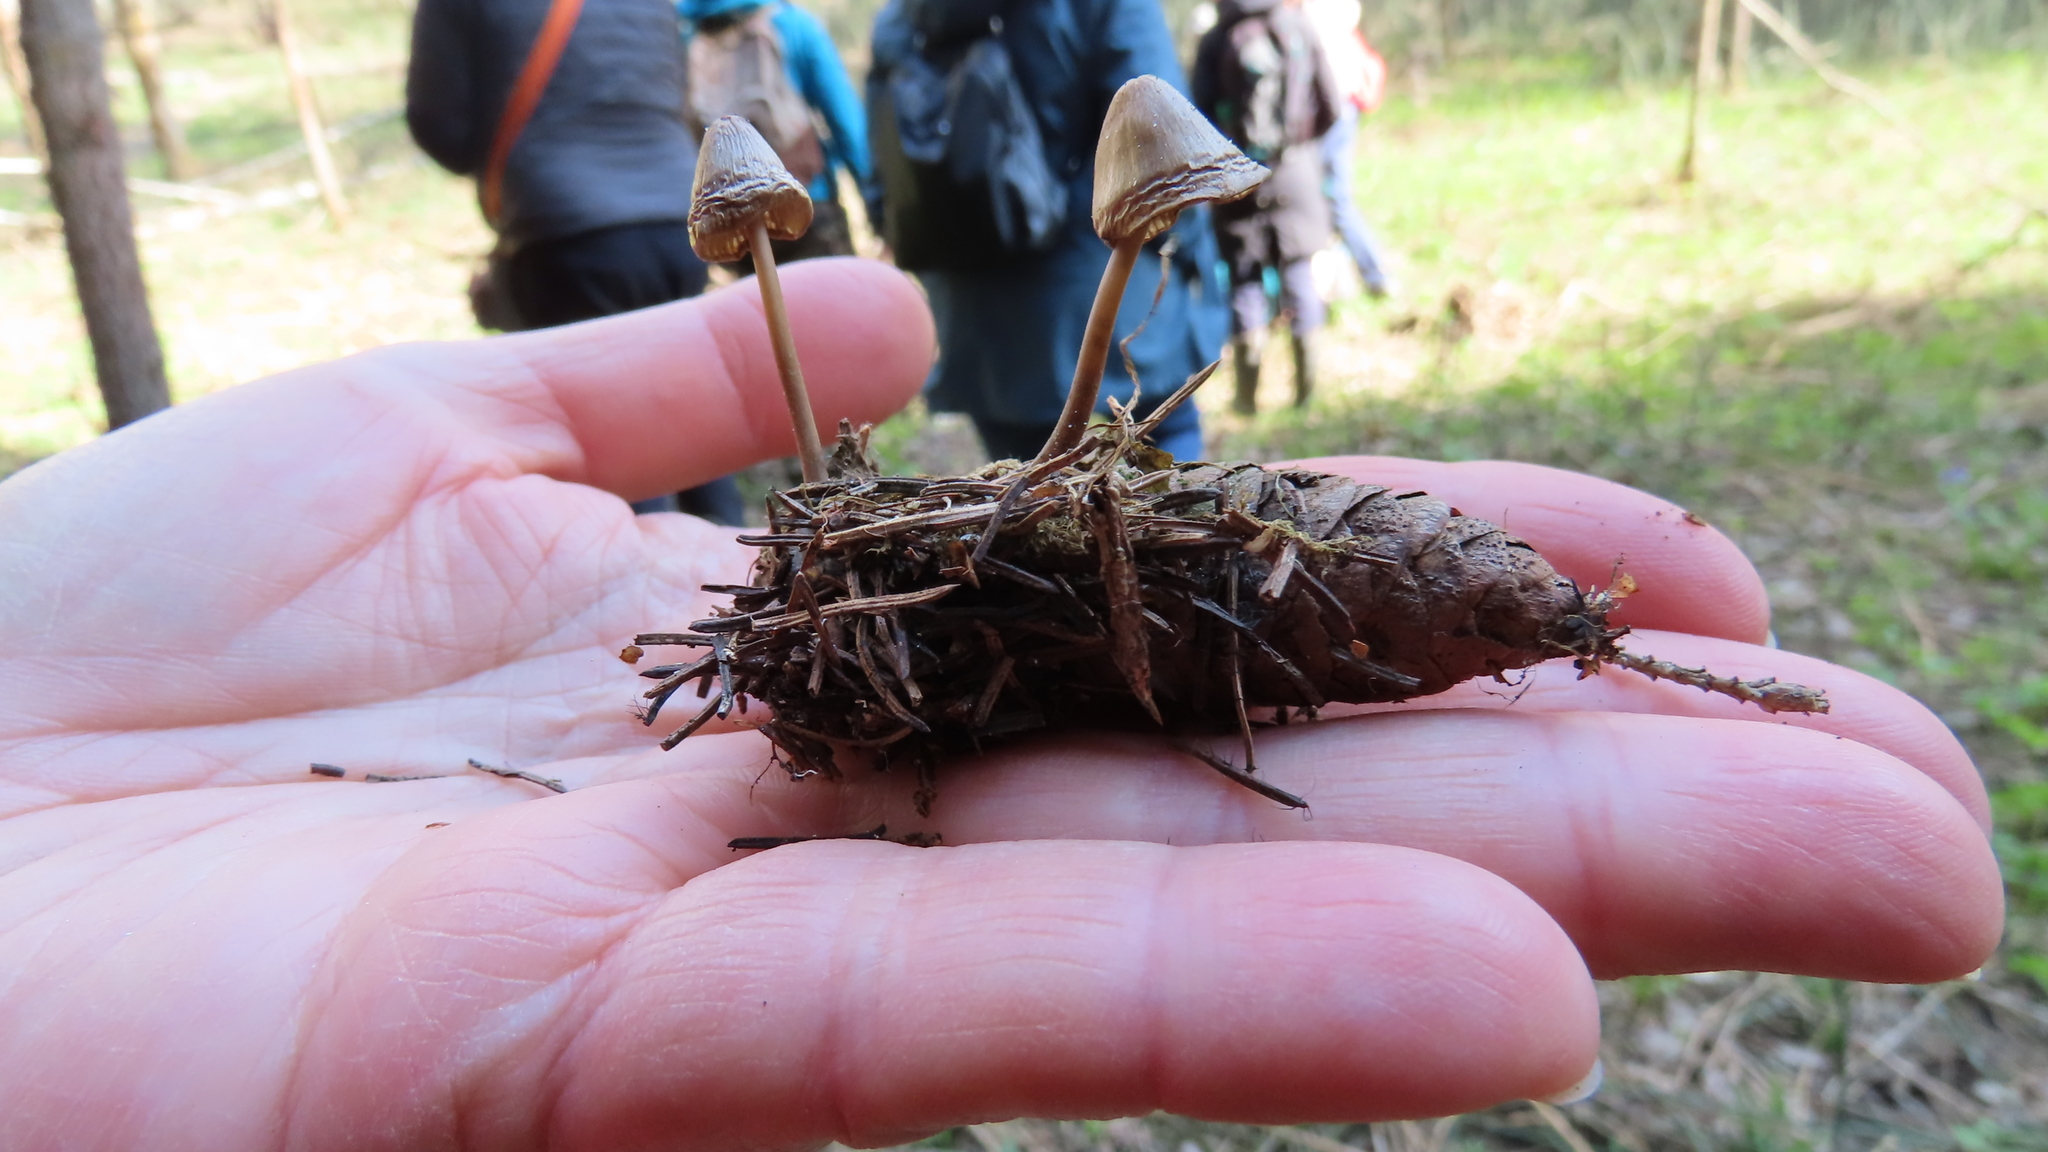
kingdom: Fungi
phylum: Basidiomycota
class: Agaricomycetes
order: Agaricales
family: Mycenaceae
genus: Mycena
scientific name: Mycena plumipes
